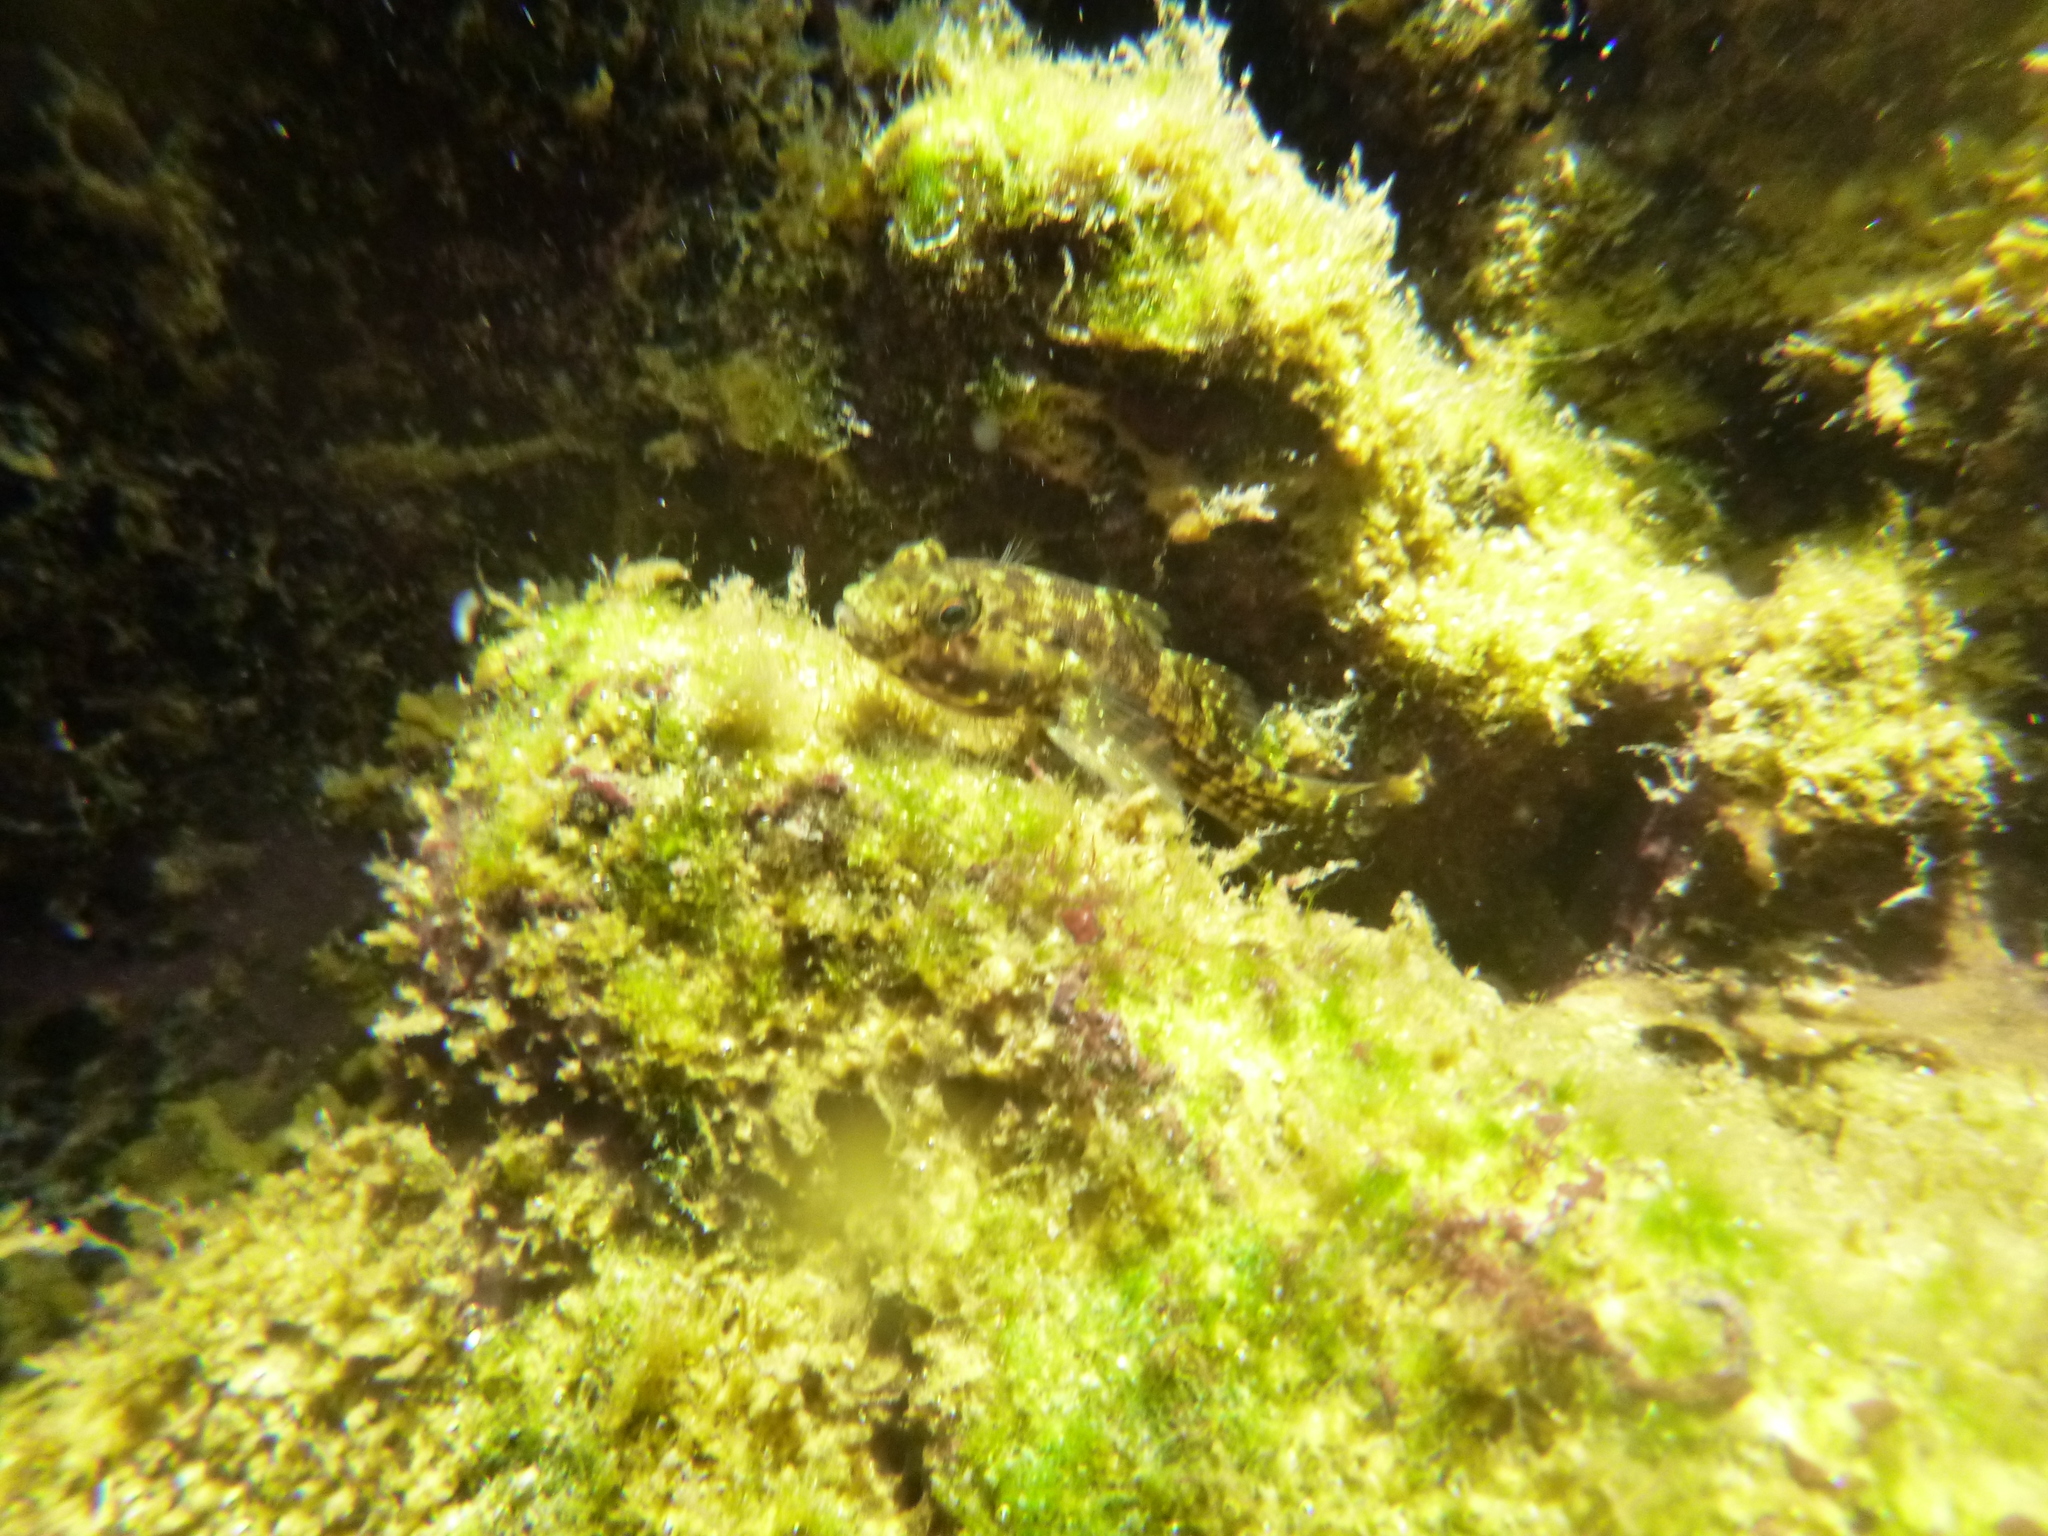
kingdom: Animalia
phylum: Chordata
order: Perciformes
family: Gobiidae
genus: Bathygobius
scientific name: Bathygobius lineatus
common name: Southern frillfin
